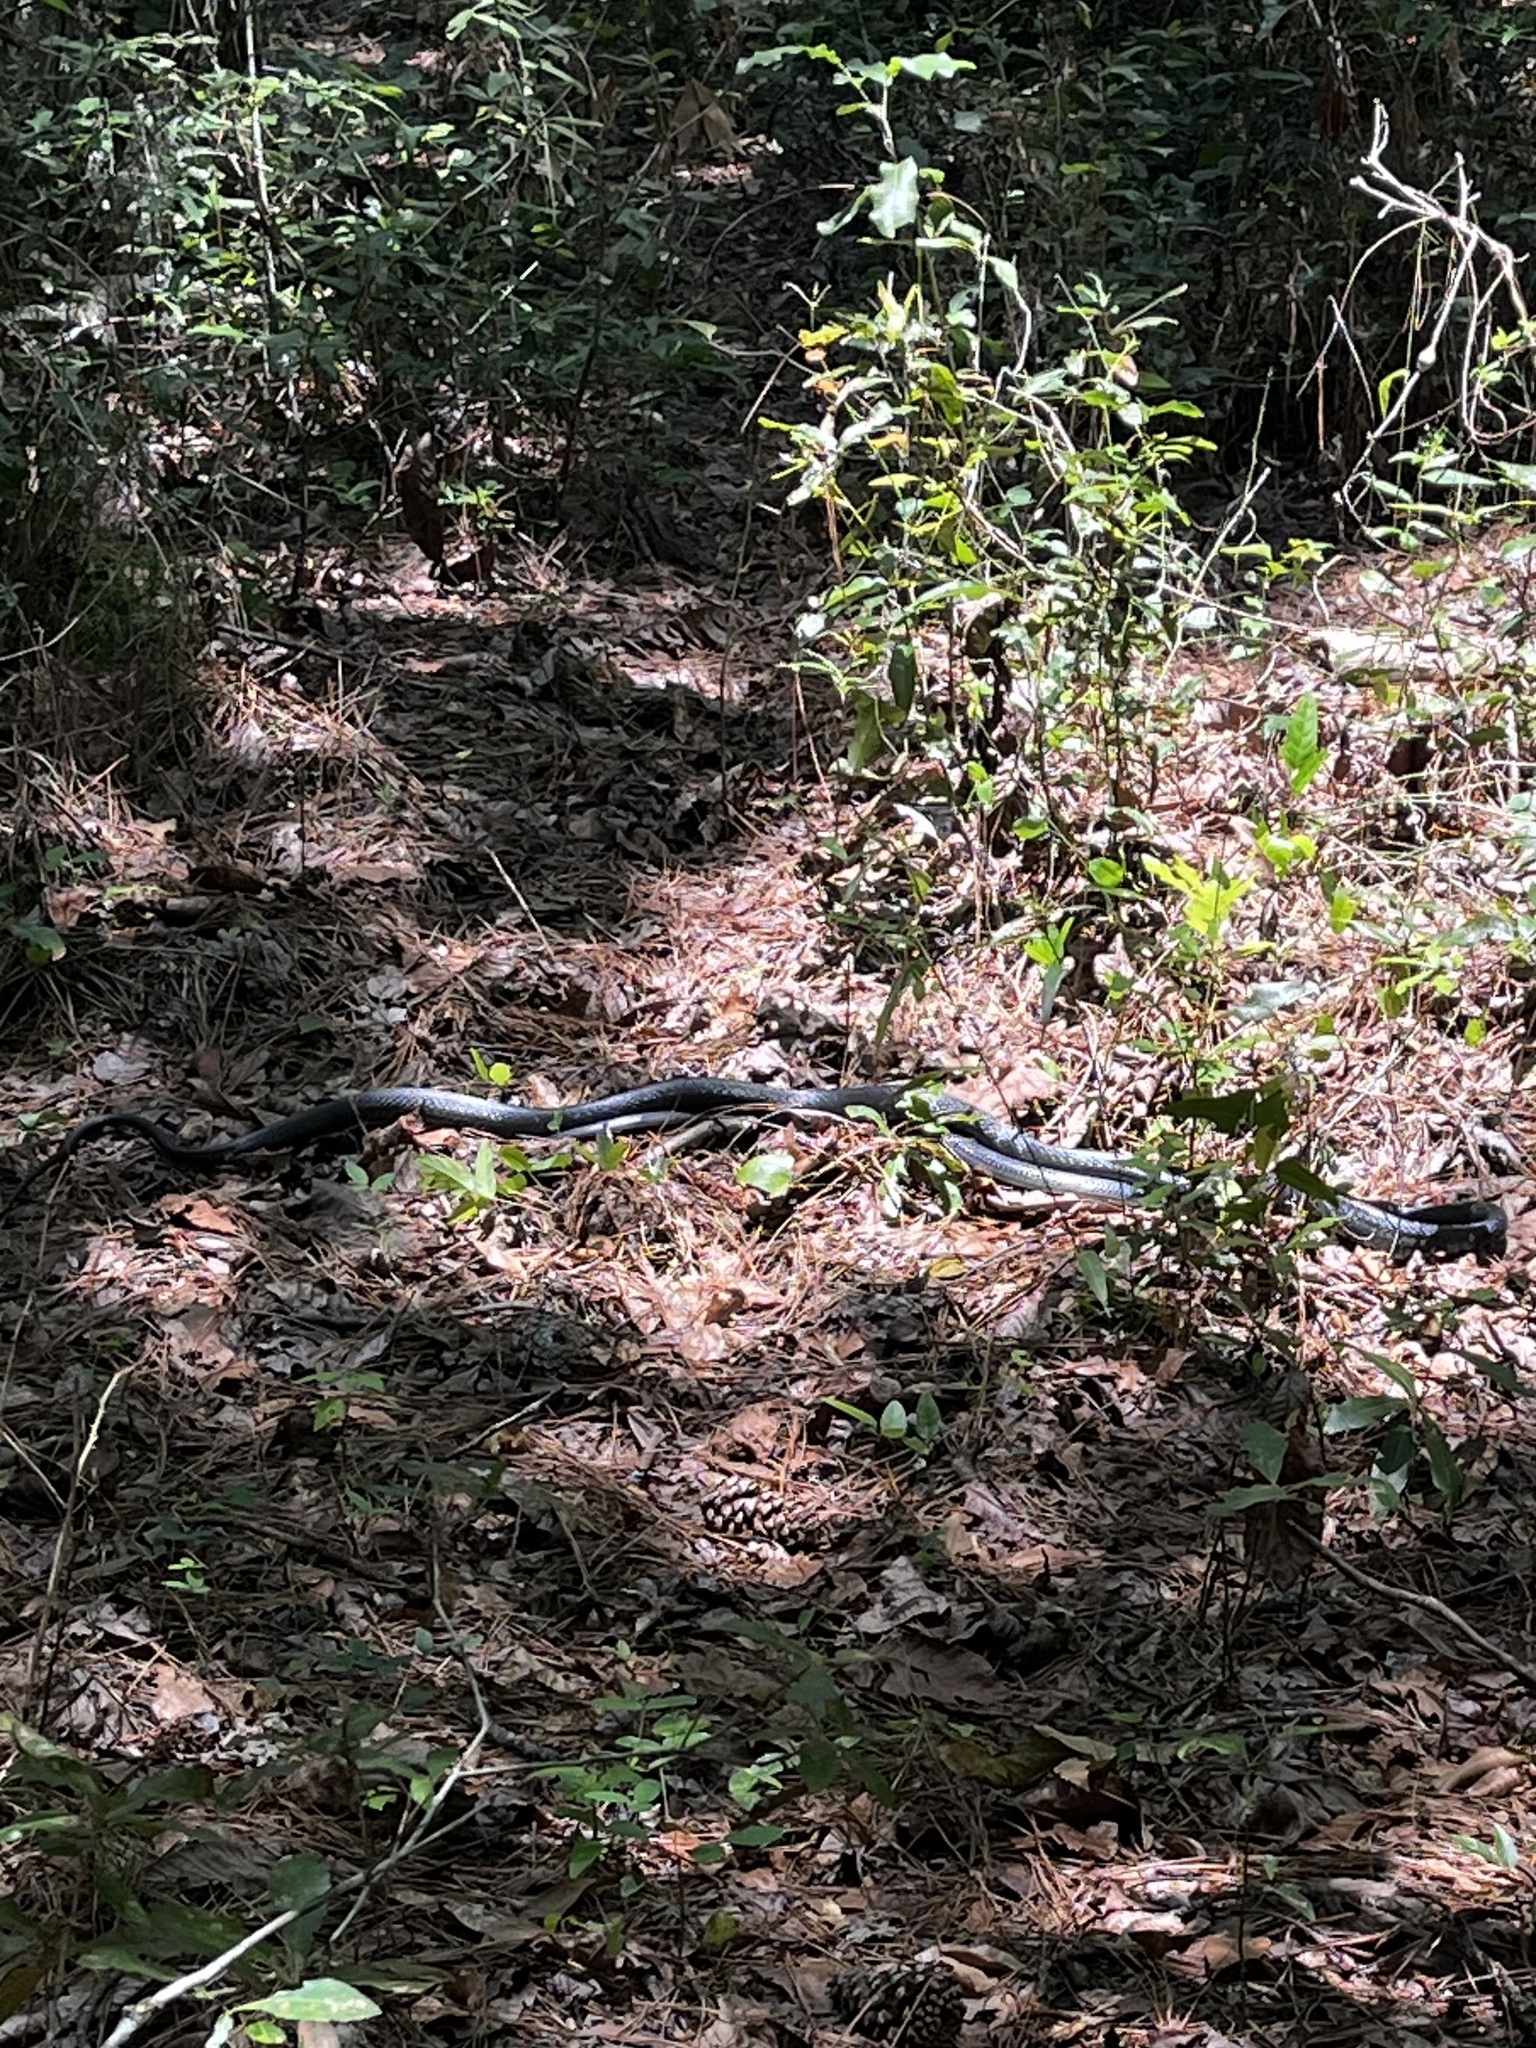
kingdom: Animalia
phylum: Chordata
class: Squamata
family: Colubridae
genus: Coluber
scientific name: Coluber constrictor
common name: Eastern racer
